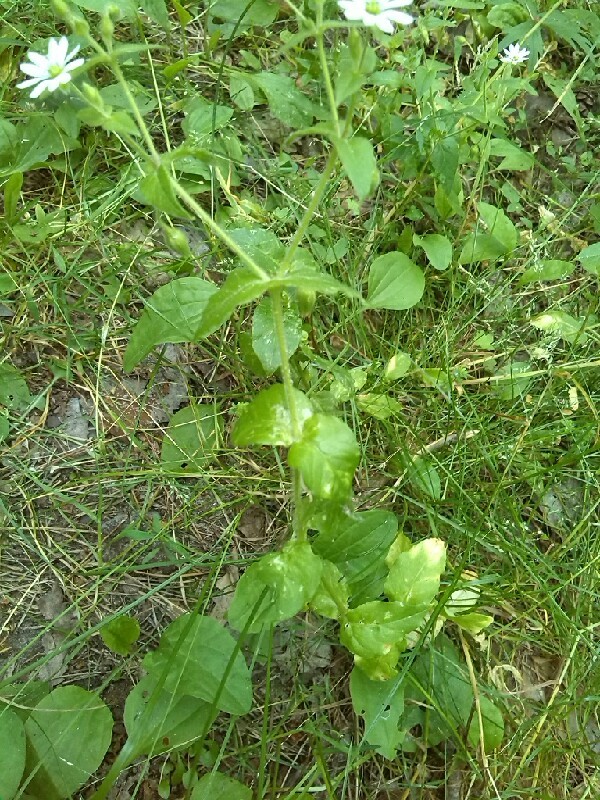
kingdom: Plantae
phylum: Tracheophyta
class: Magnoliopsida
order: Caryophyllales
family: Caryophyllaceae
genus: Stellaria
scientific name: Stellaria nemorum
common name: Wood stitchwort
